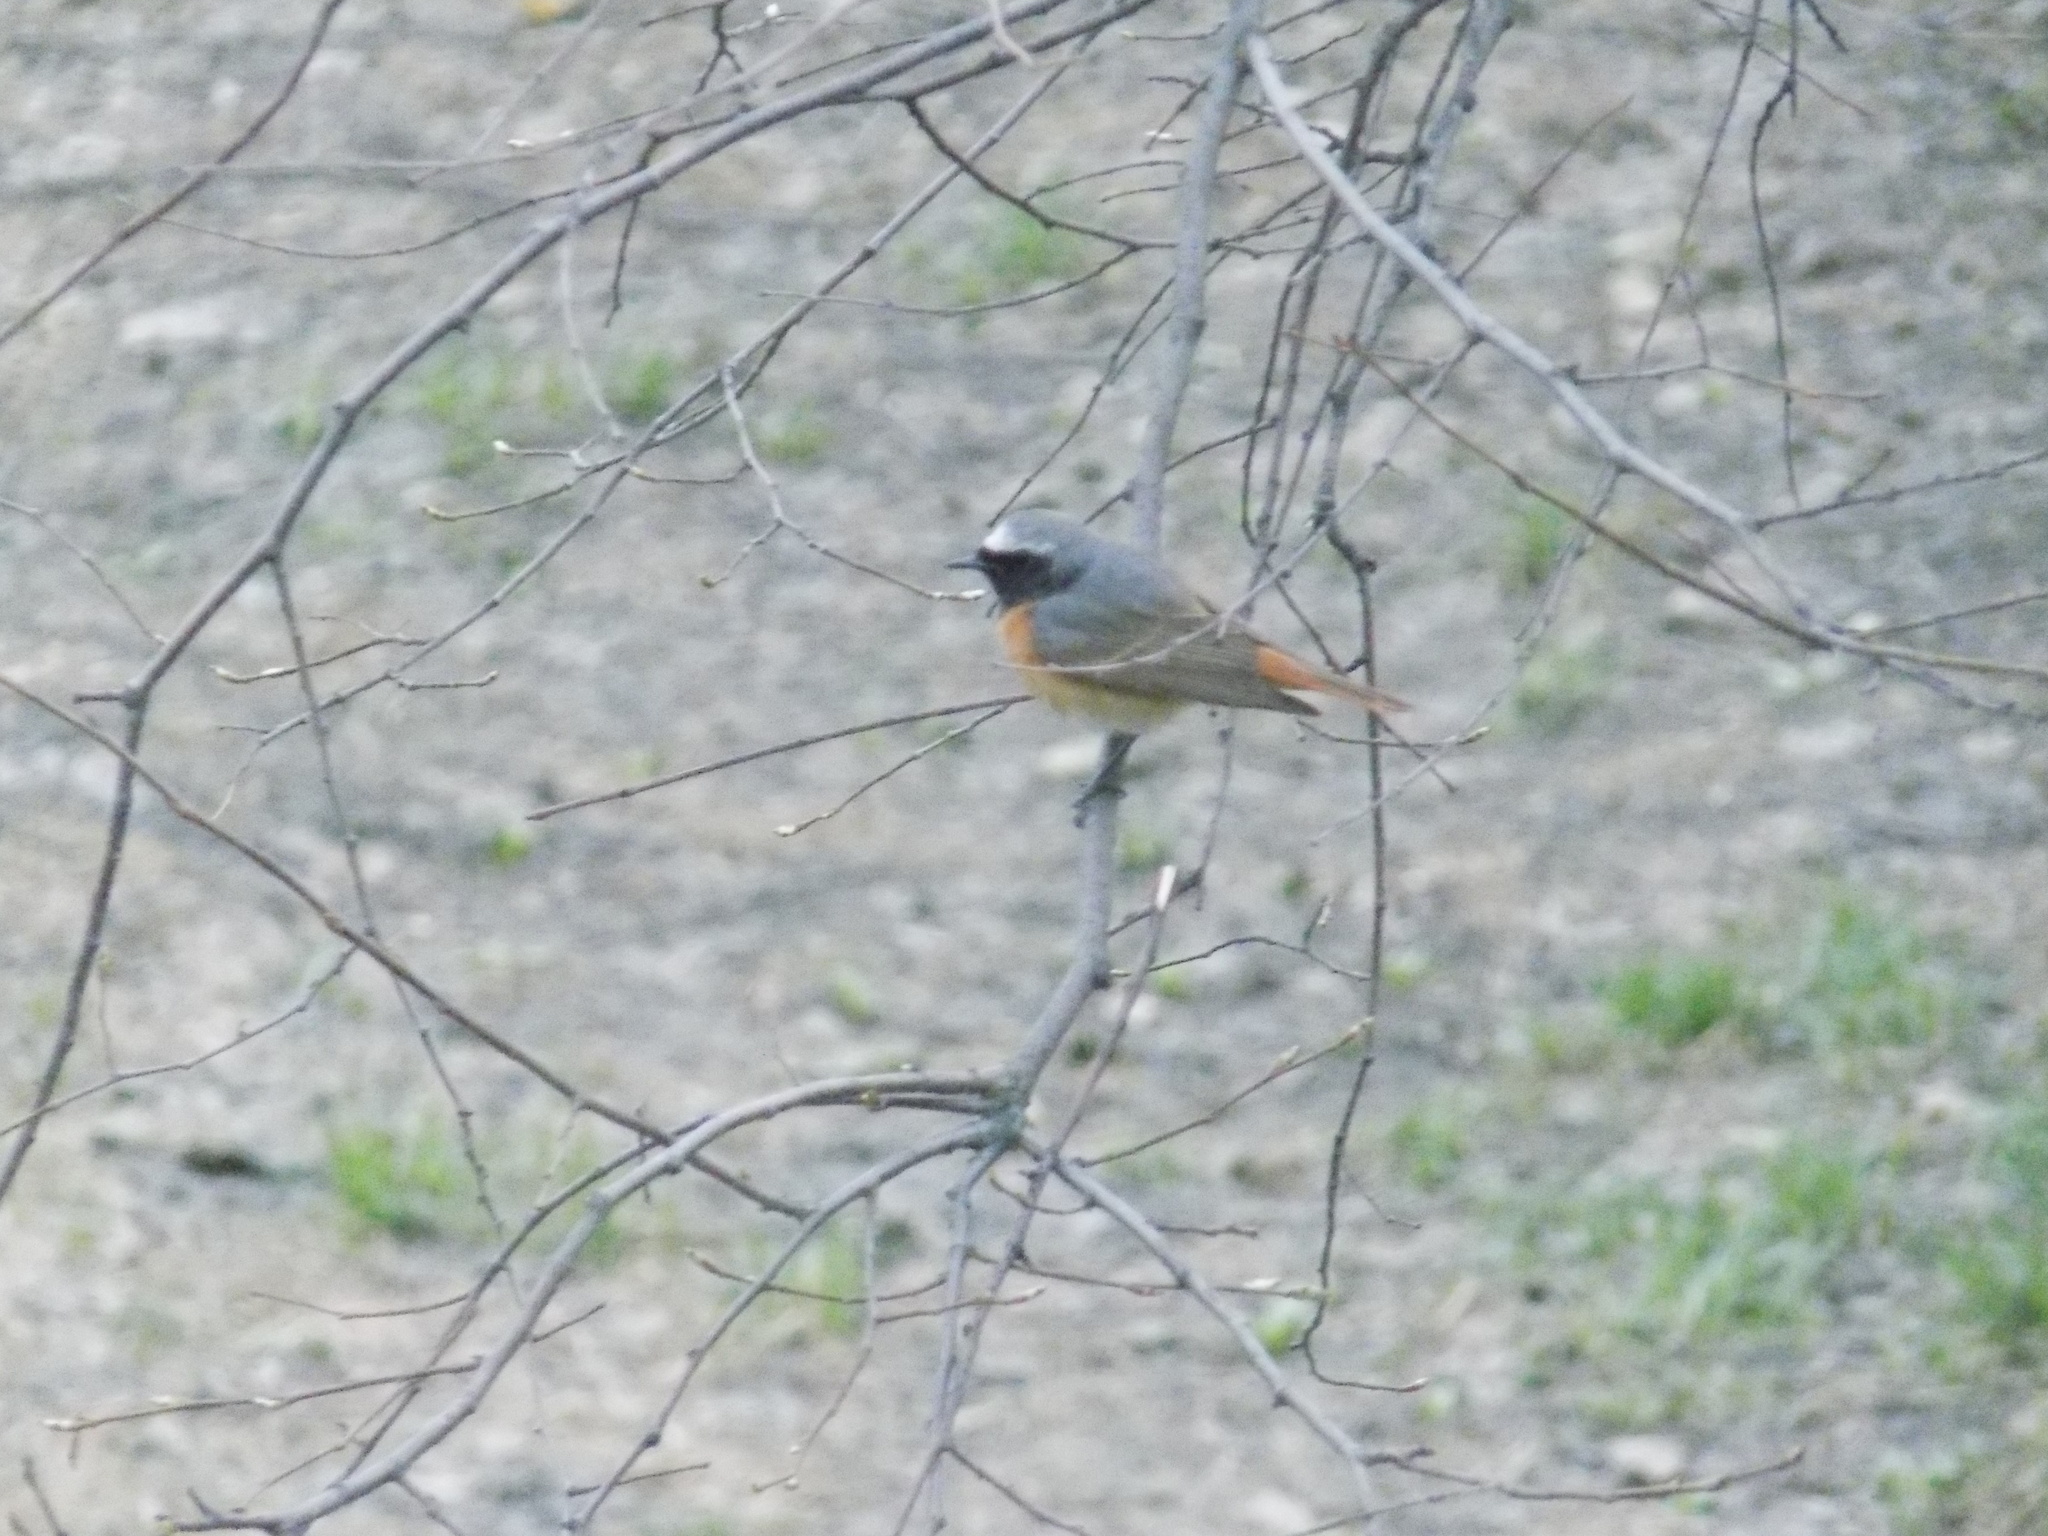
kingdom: Animalia
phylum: Chordata
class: Aves
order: Passeriformes
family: Muscicapidae
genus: Phoenicurus
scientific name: Phoenicurus phoenicurus
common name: Common redstart
